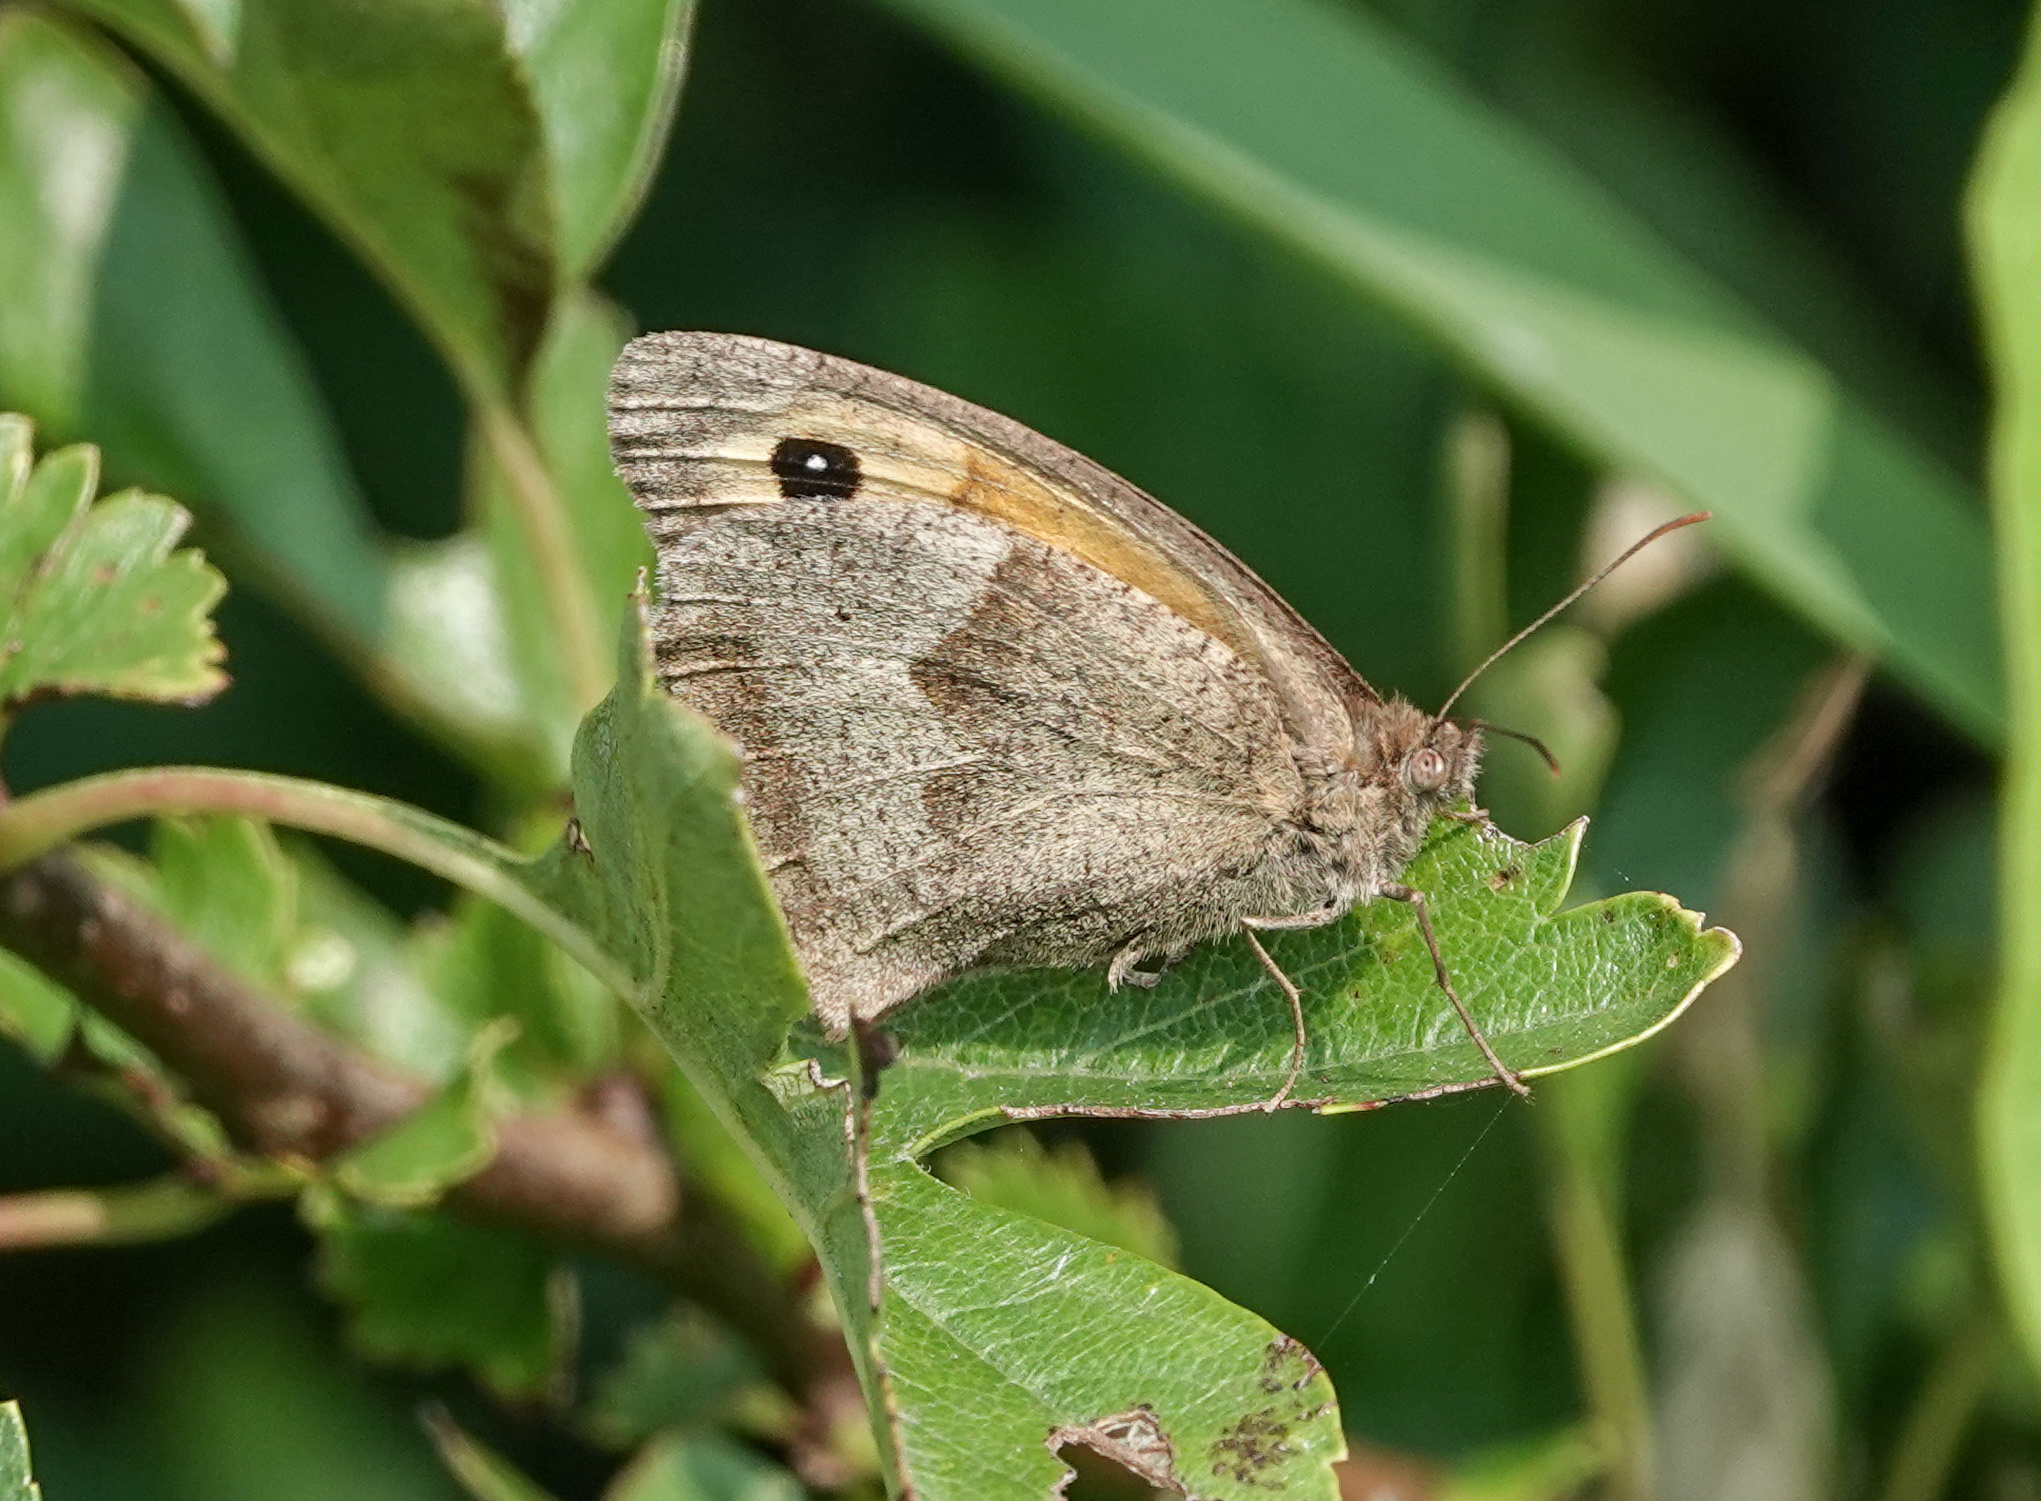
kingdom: Animalia
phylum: Arthropoda
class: Insecta
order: Lepidoptera
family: Nymphalidae
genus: Maniola
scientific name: Maniola jurtina
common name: Meadow brown
